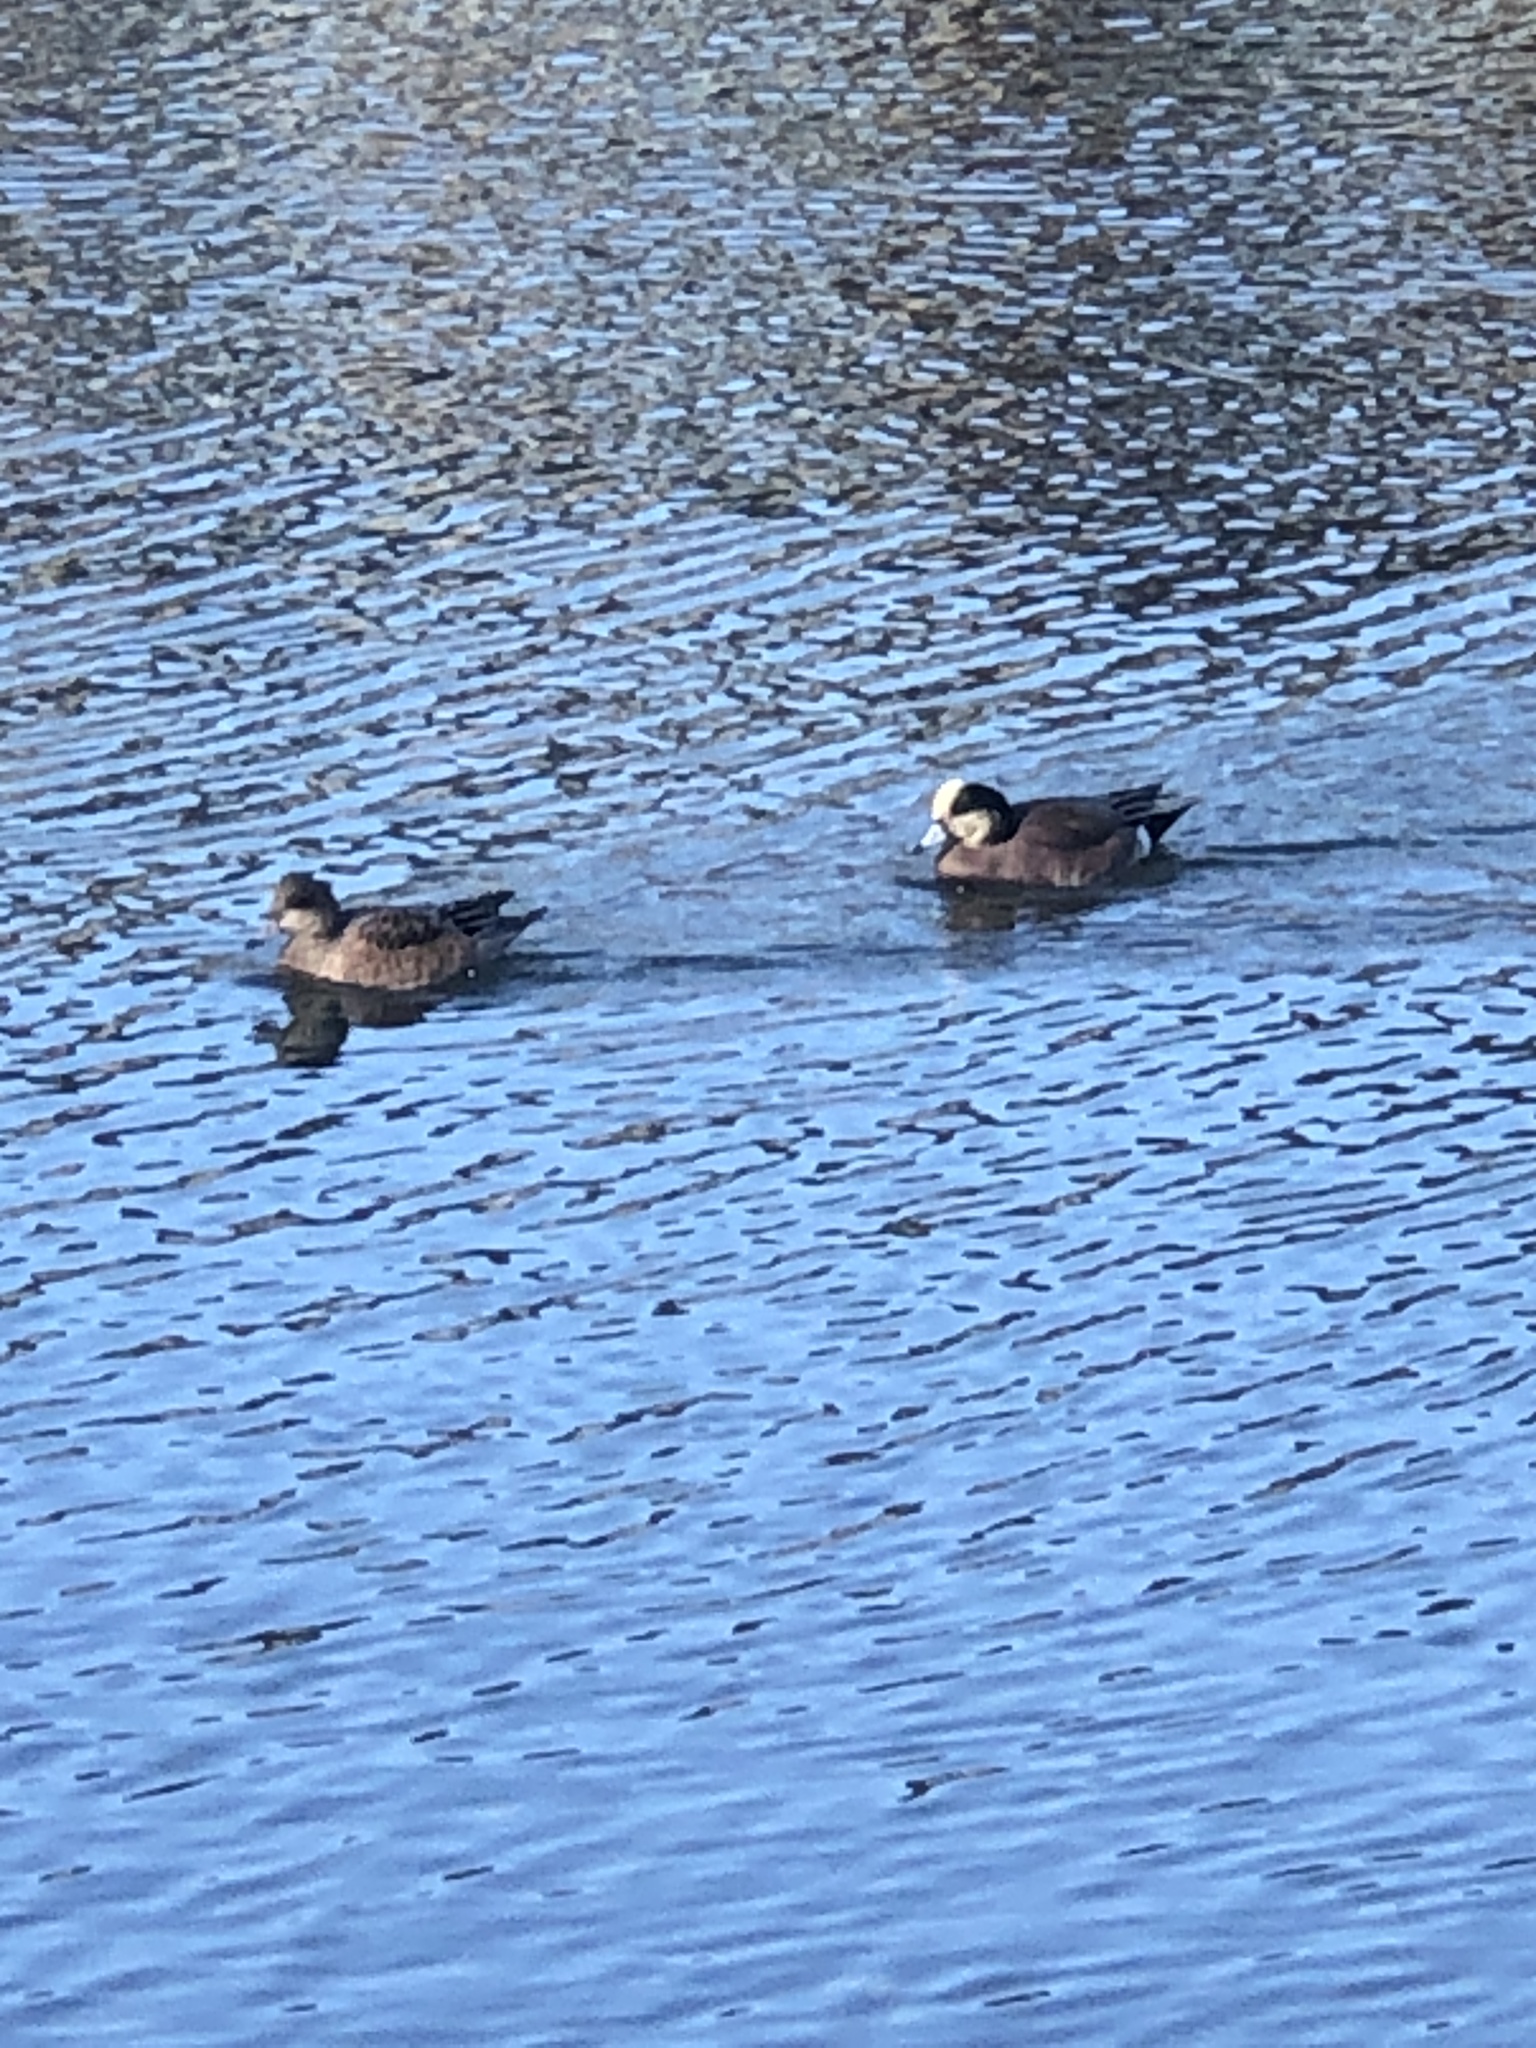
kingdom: Animalia
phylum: Chordata
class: Aves
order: Anseriformes
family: Anatidae
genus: Mareca
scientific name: Mareca americana
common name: American wigeon
